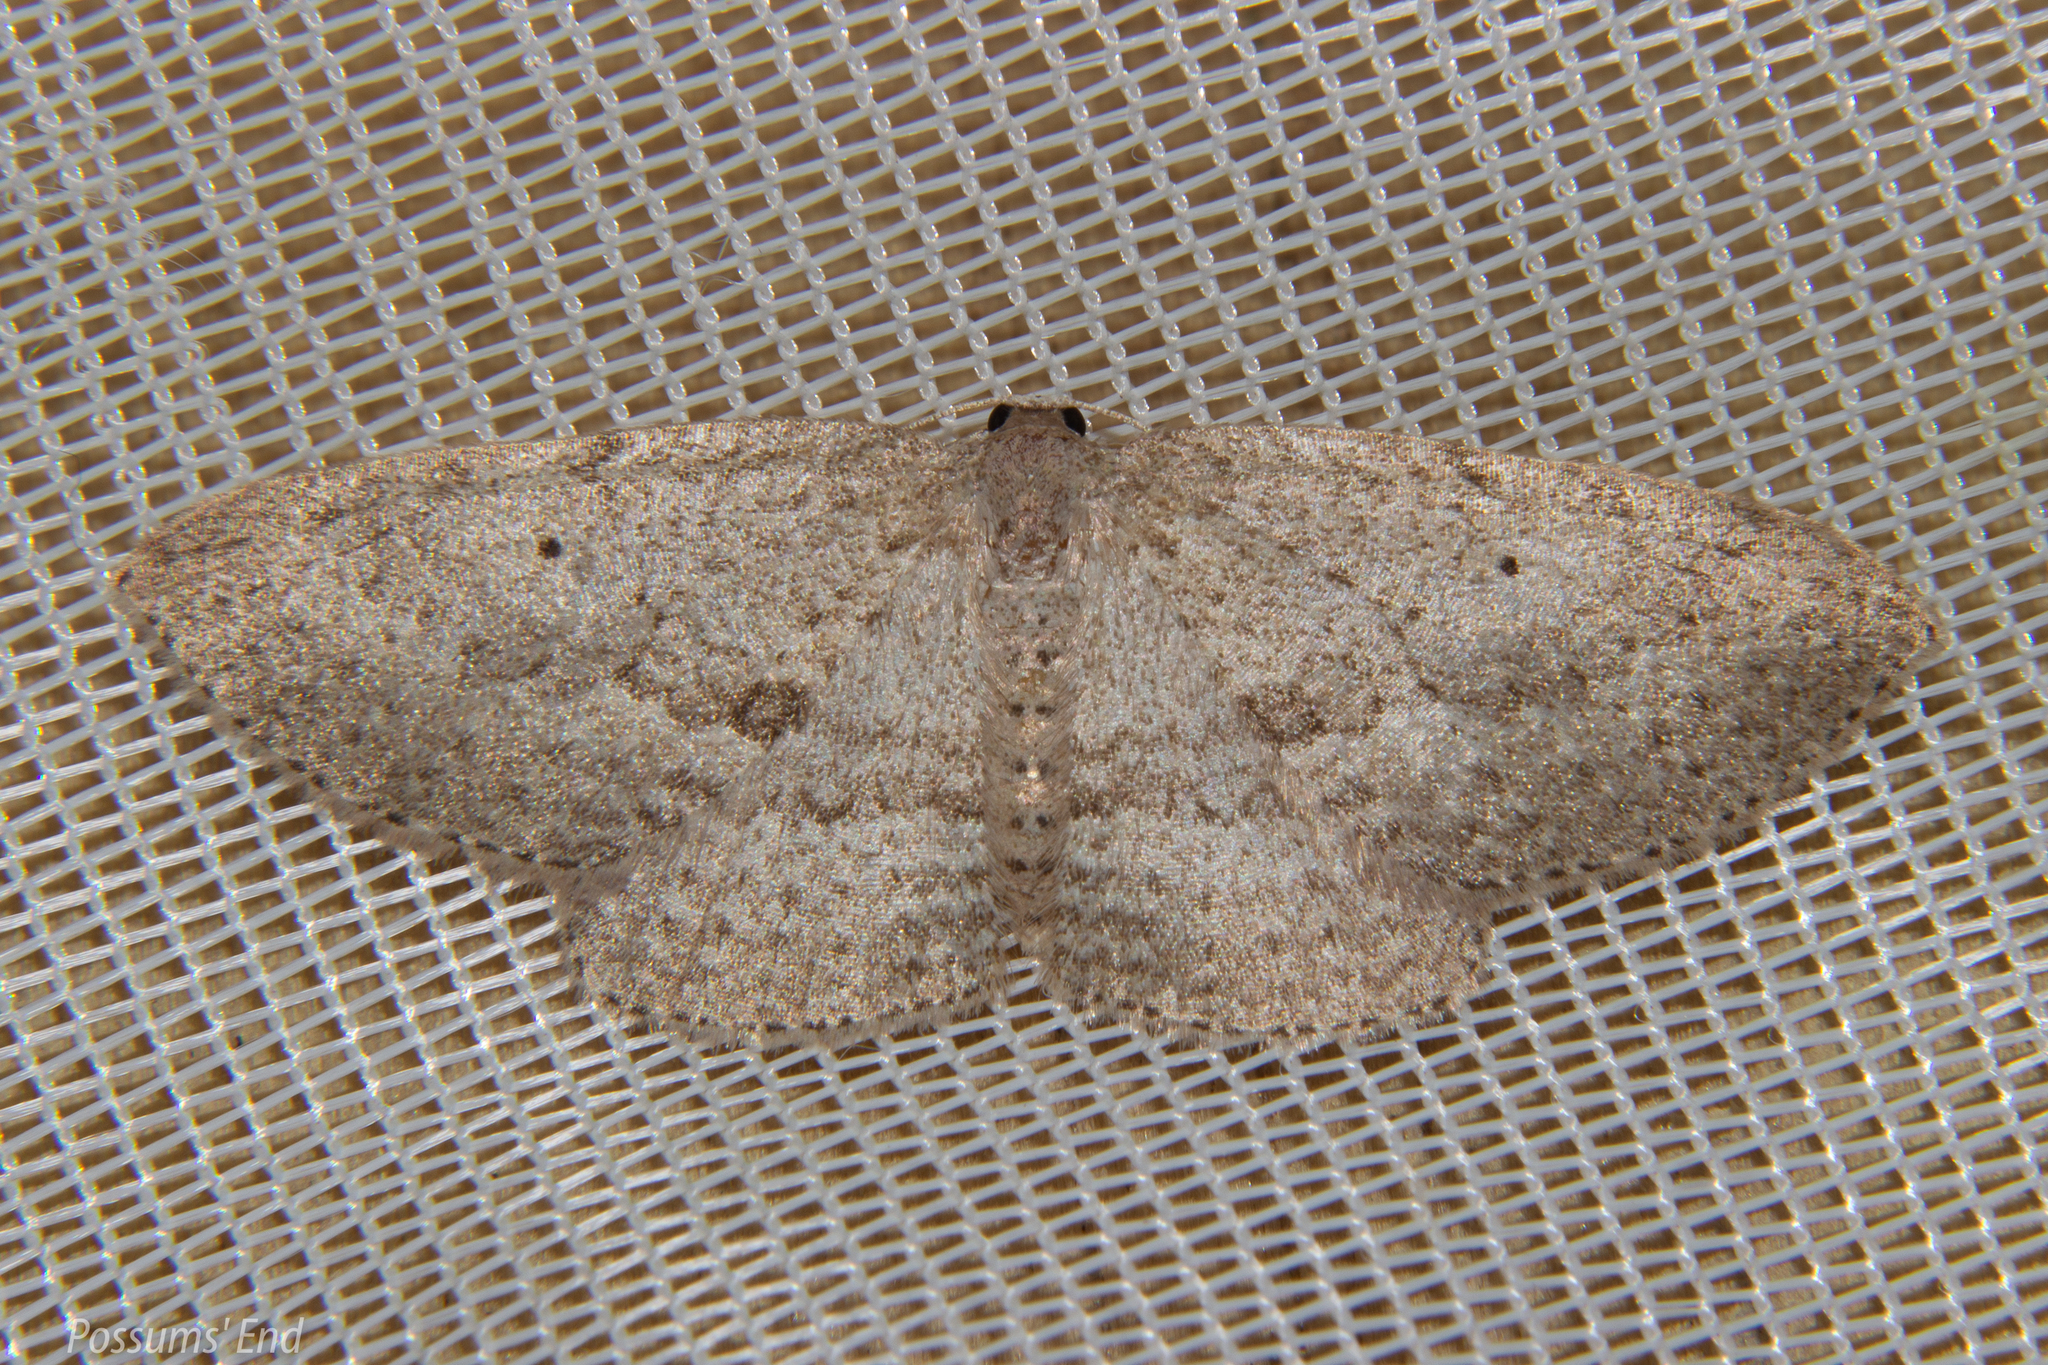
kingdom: Animalia
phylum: Arthropoda
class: Insecta
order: Lepidoptera
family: Geometridae
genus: Poecilasthena
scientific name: Poecilasthena schistaria
